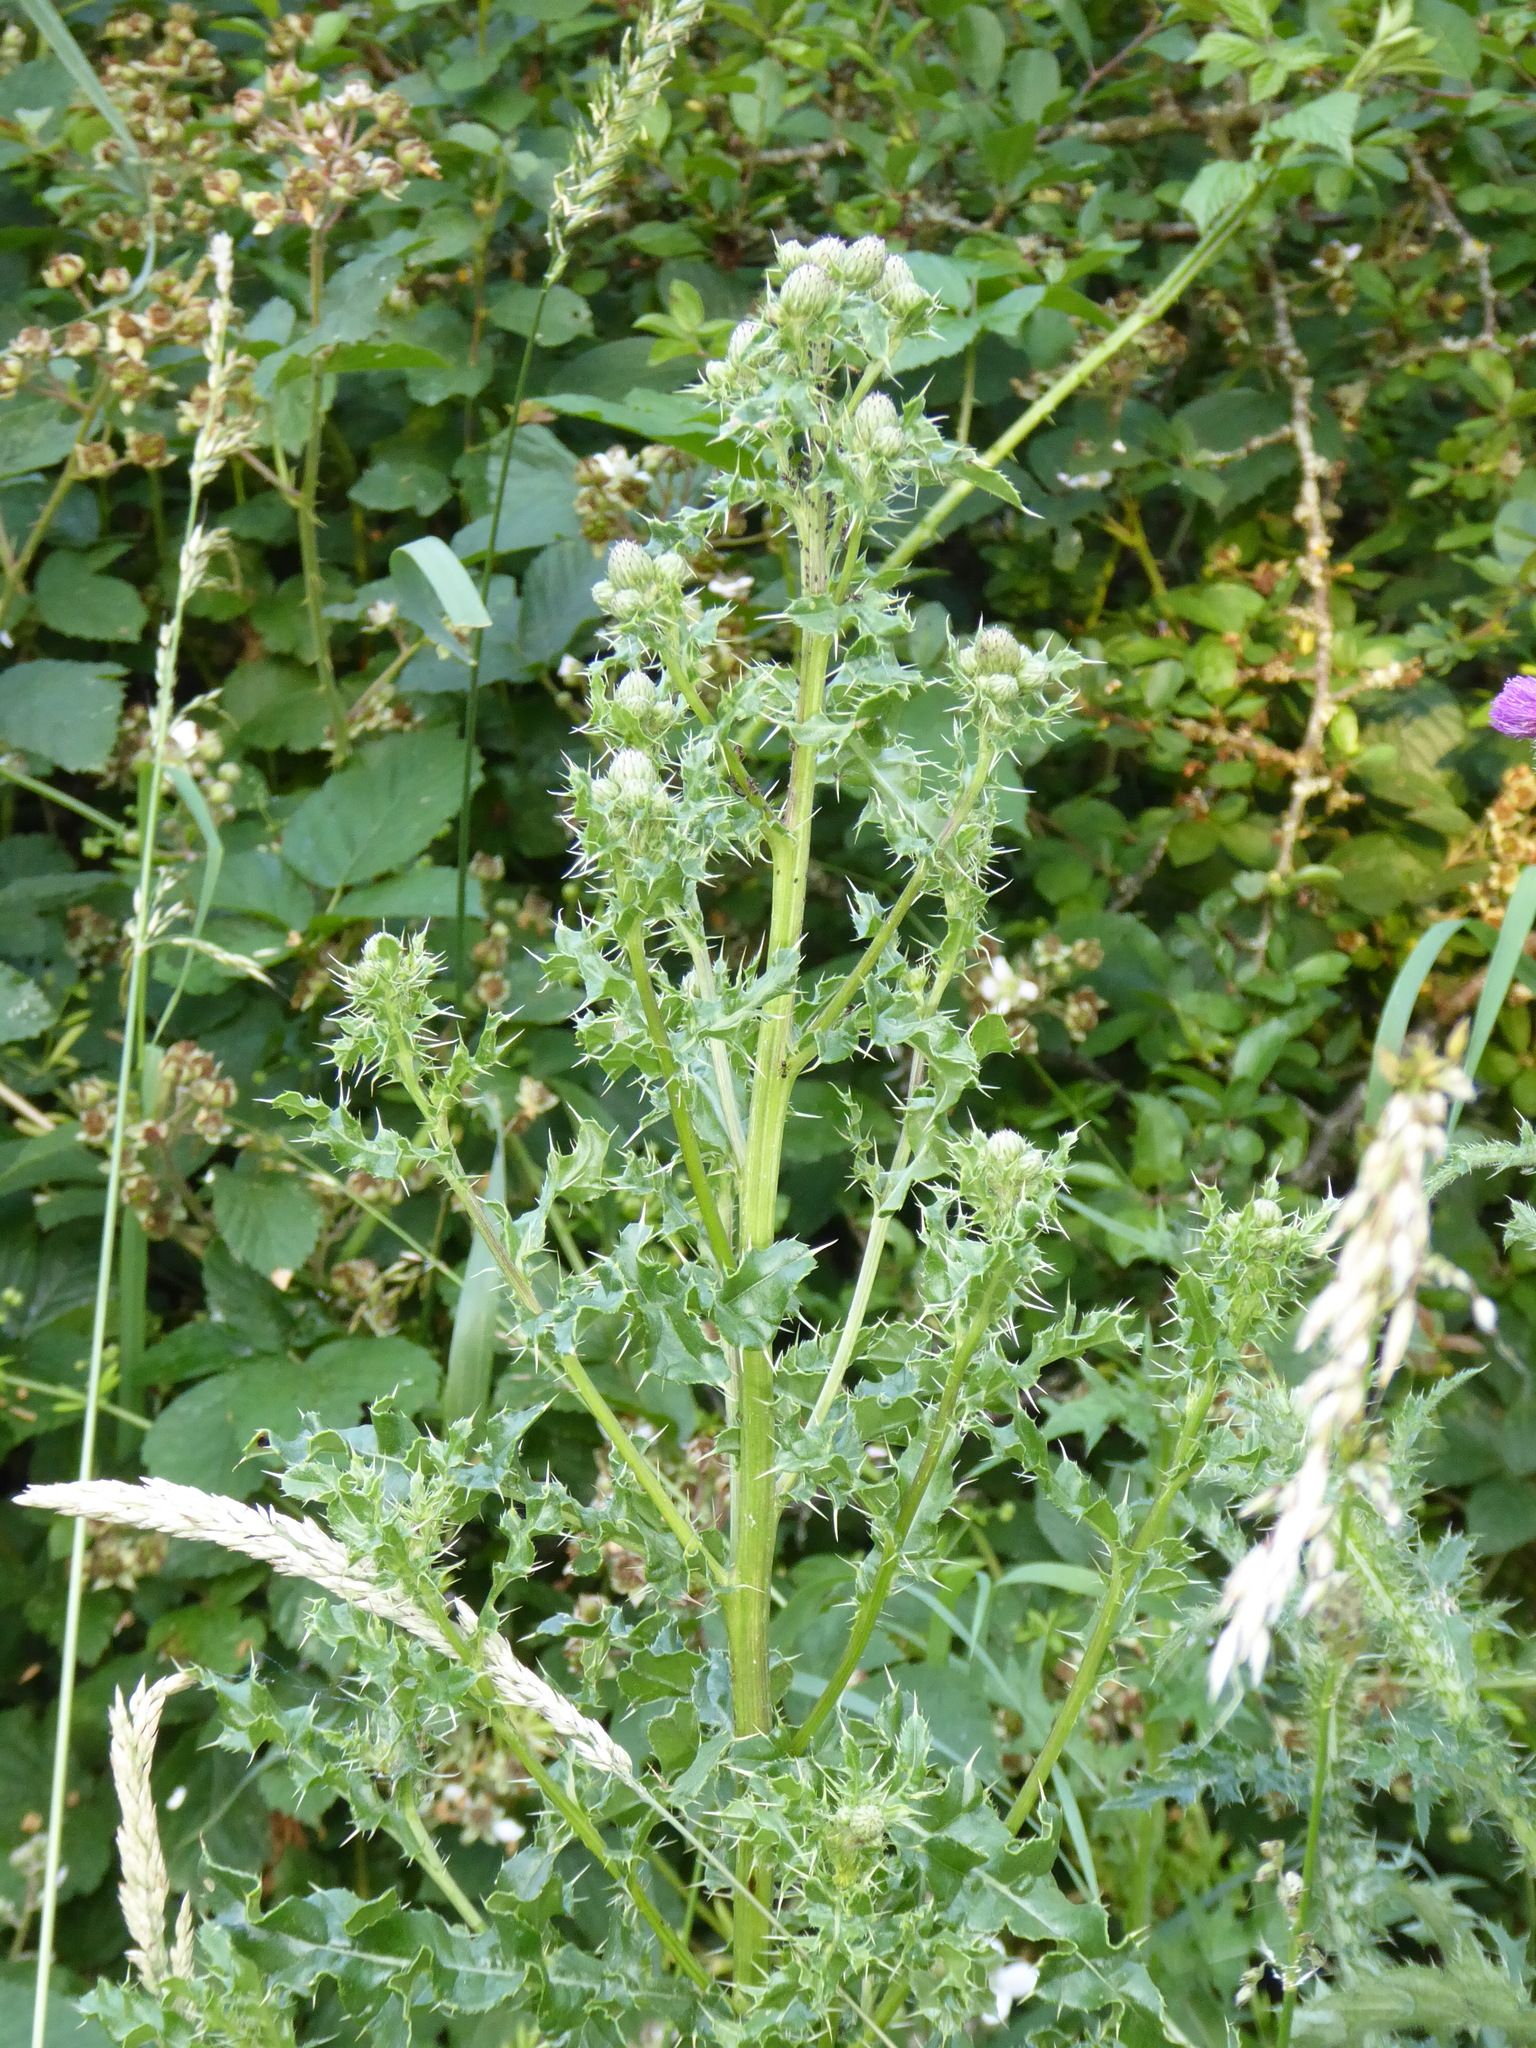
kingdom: Plantae
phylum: Tracheophyta
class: Magnoliopsida
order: Asterales
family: Asteraceae
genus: Cirsium
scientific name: Cirsium arvense
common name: Creeping thistle
